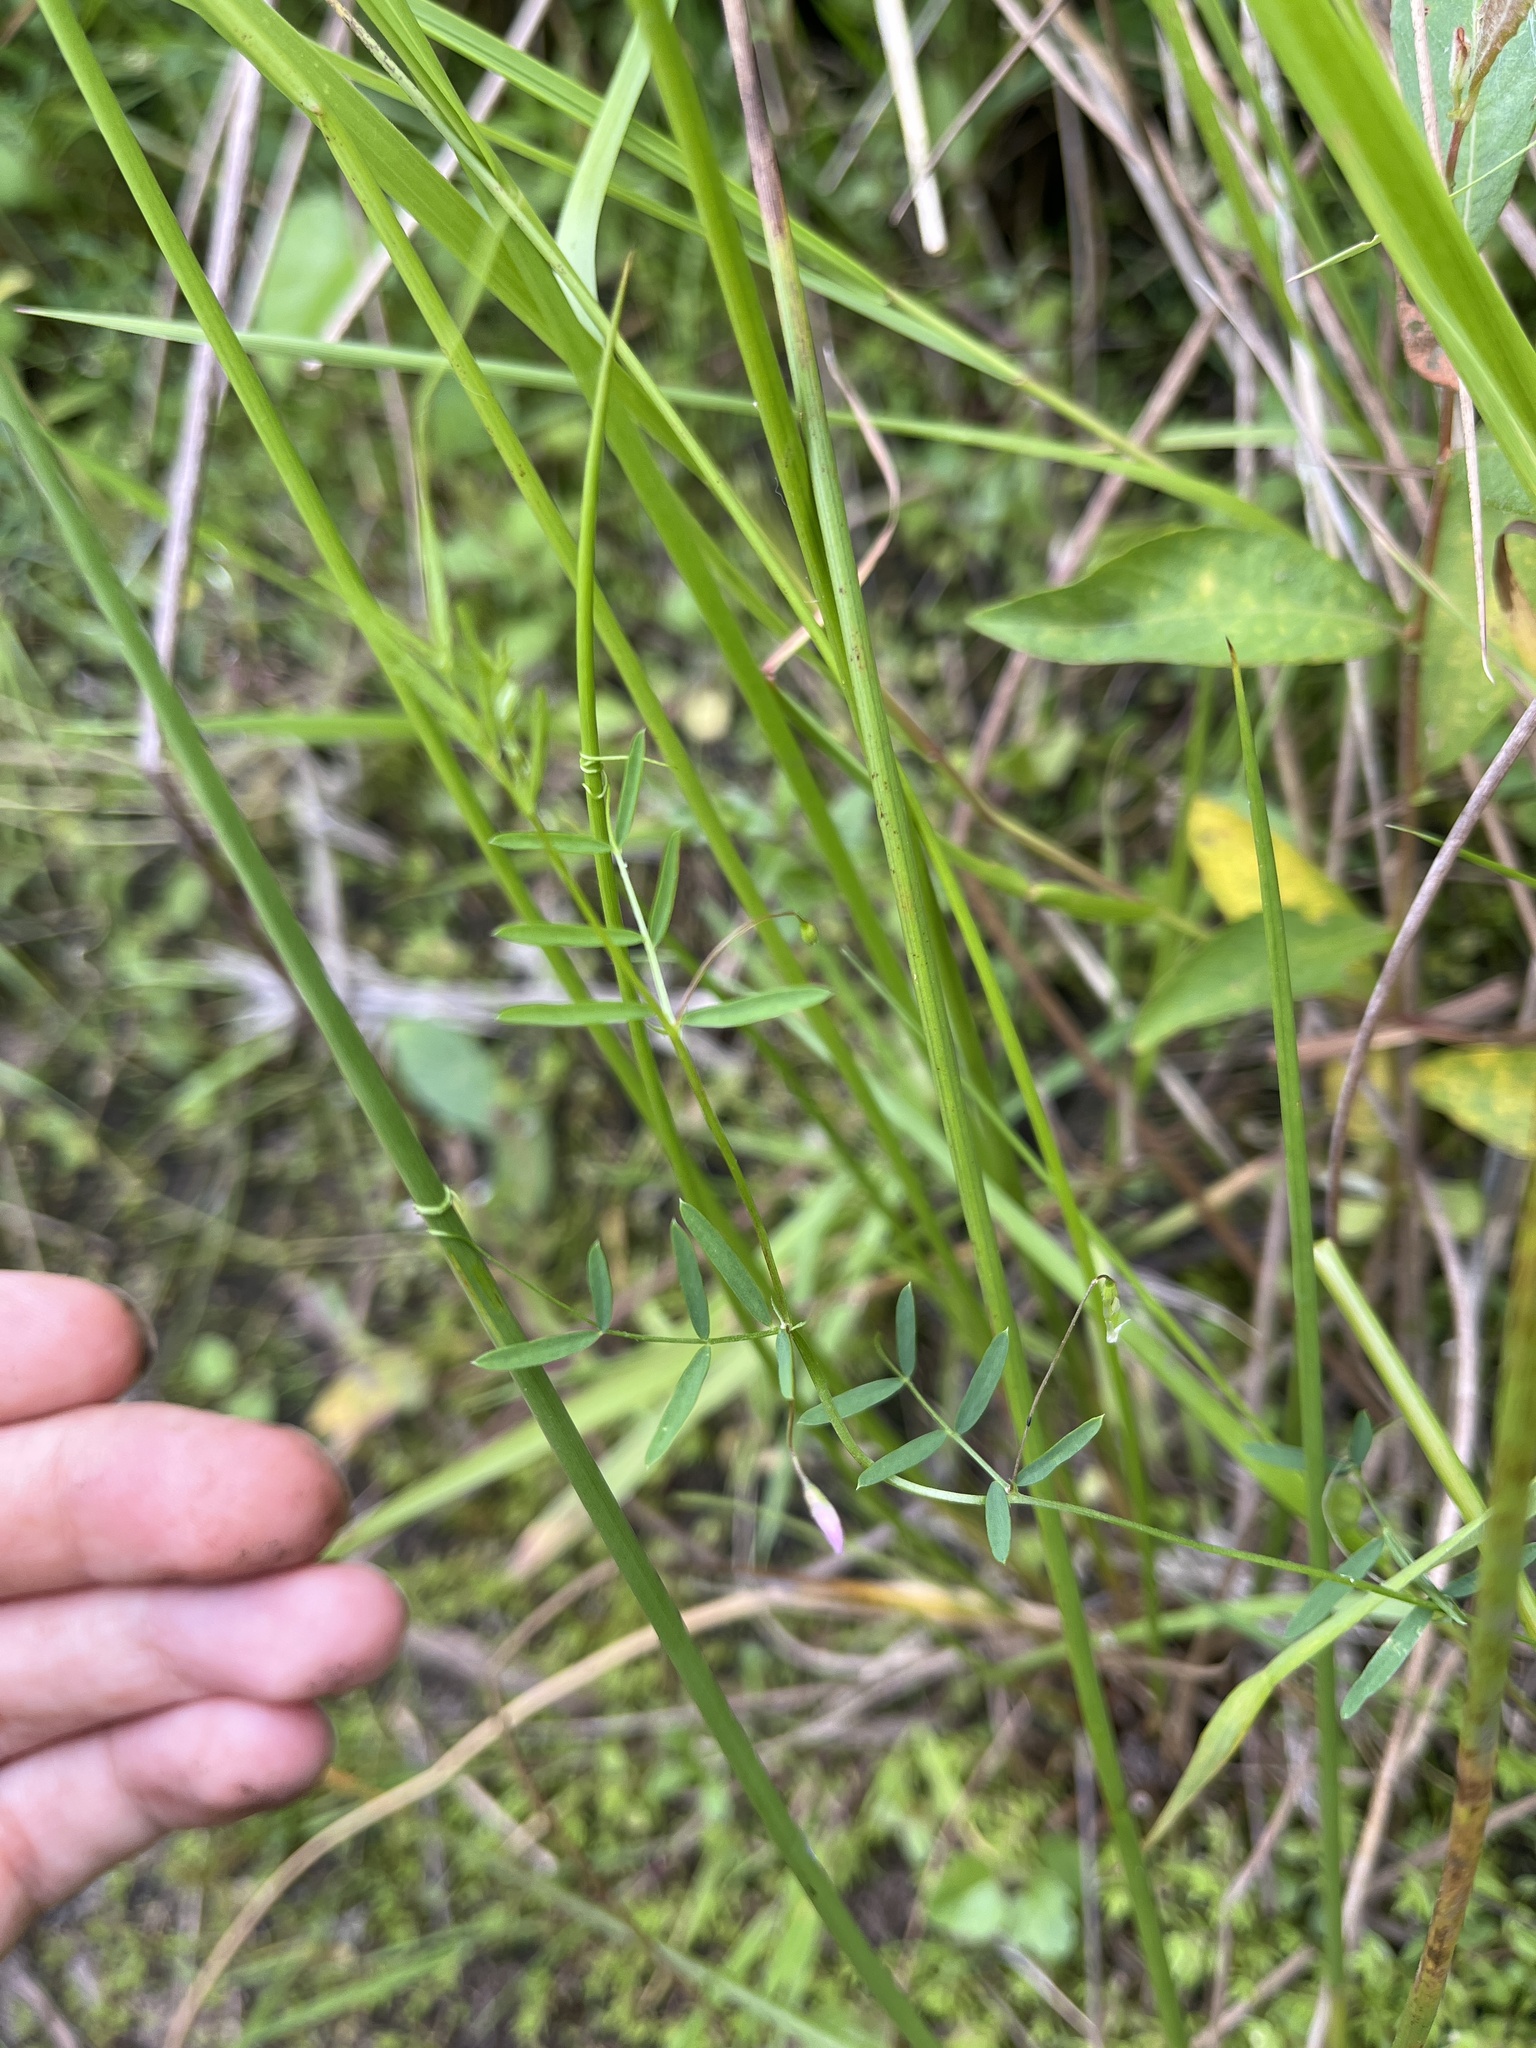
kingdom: Plantae
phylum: Tracheophyta
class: Magnoliopsida
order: Fabales
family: Fabaceae
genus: Vicia
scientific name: Vicia tetrasperma
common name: Smooth tare
